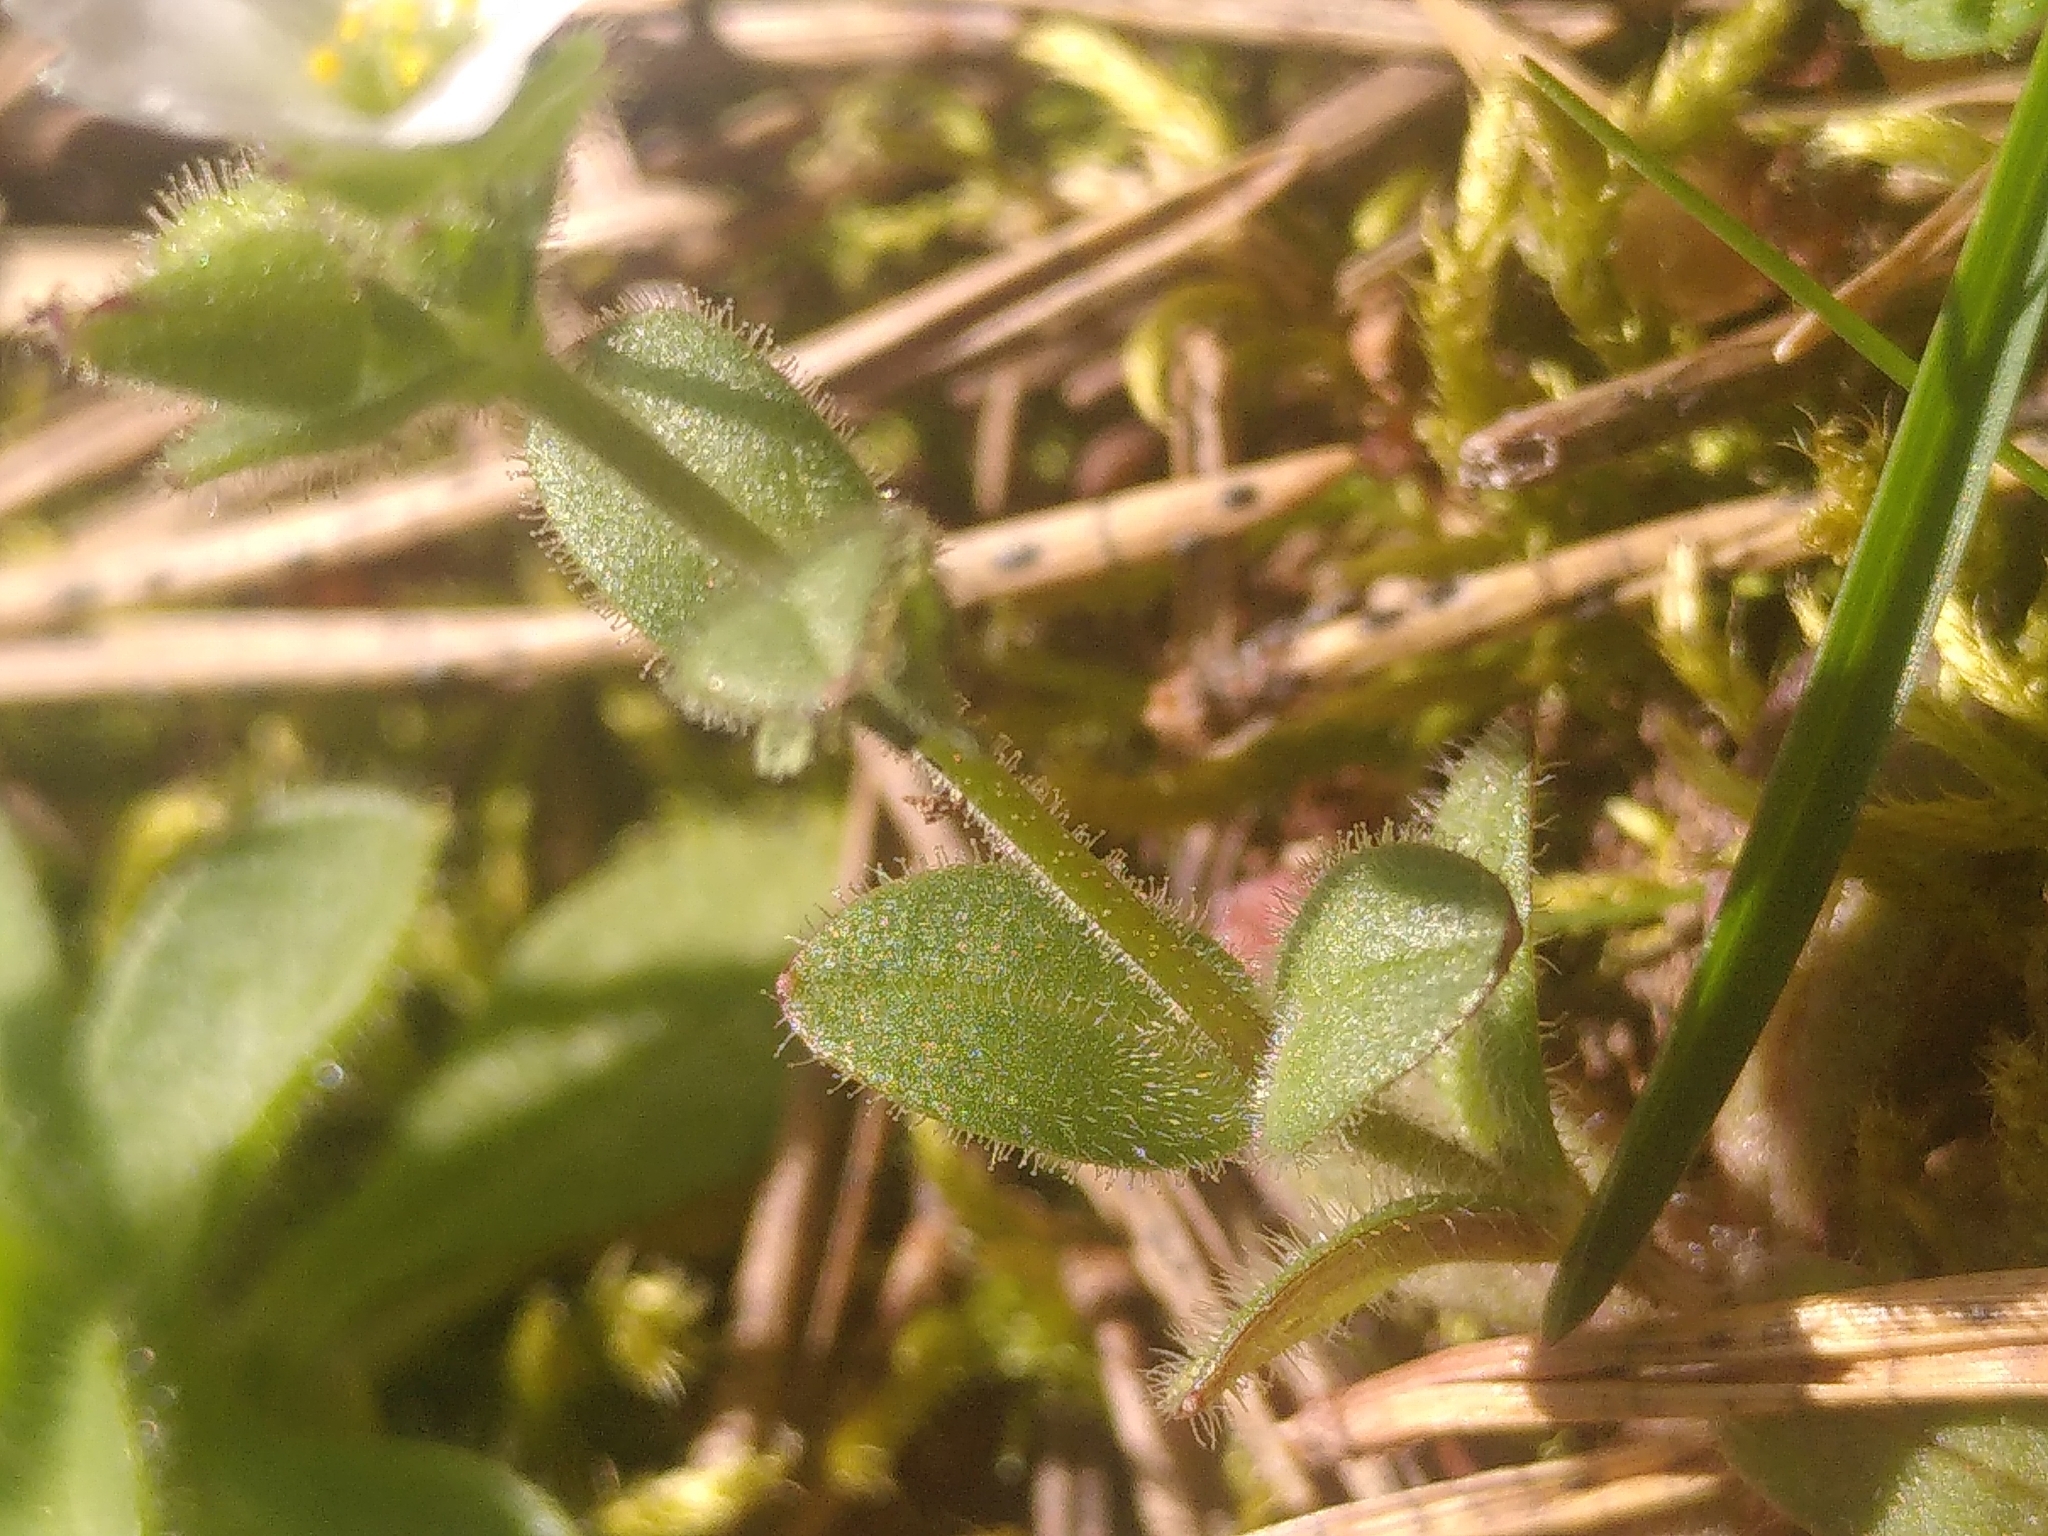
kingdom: Plantae
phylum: Tracheophyta
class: Magnoliopsida
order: Caryophyllales
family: Caryophyllaceae
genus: Cerastium
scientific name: Cerastium ramosissimum
